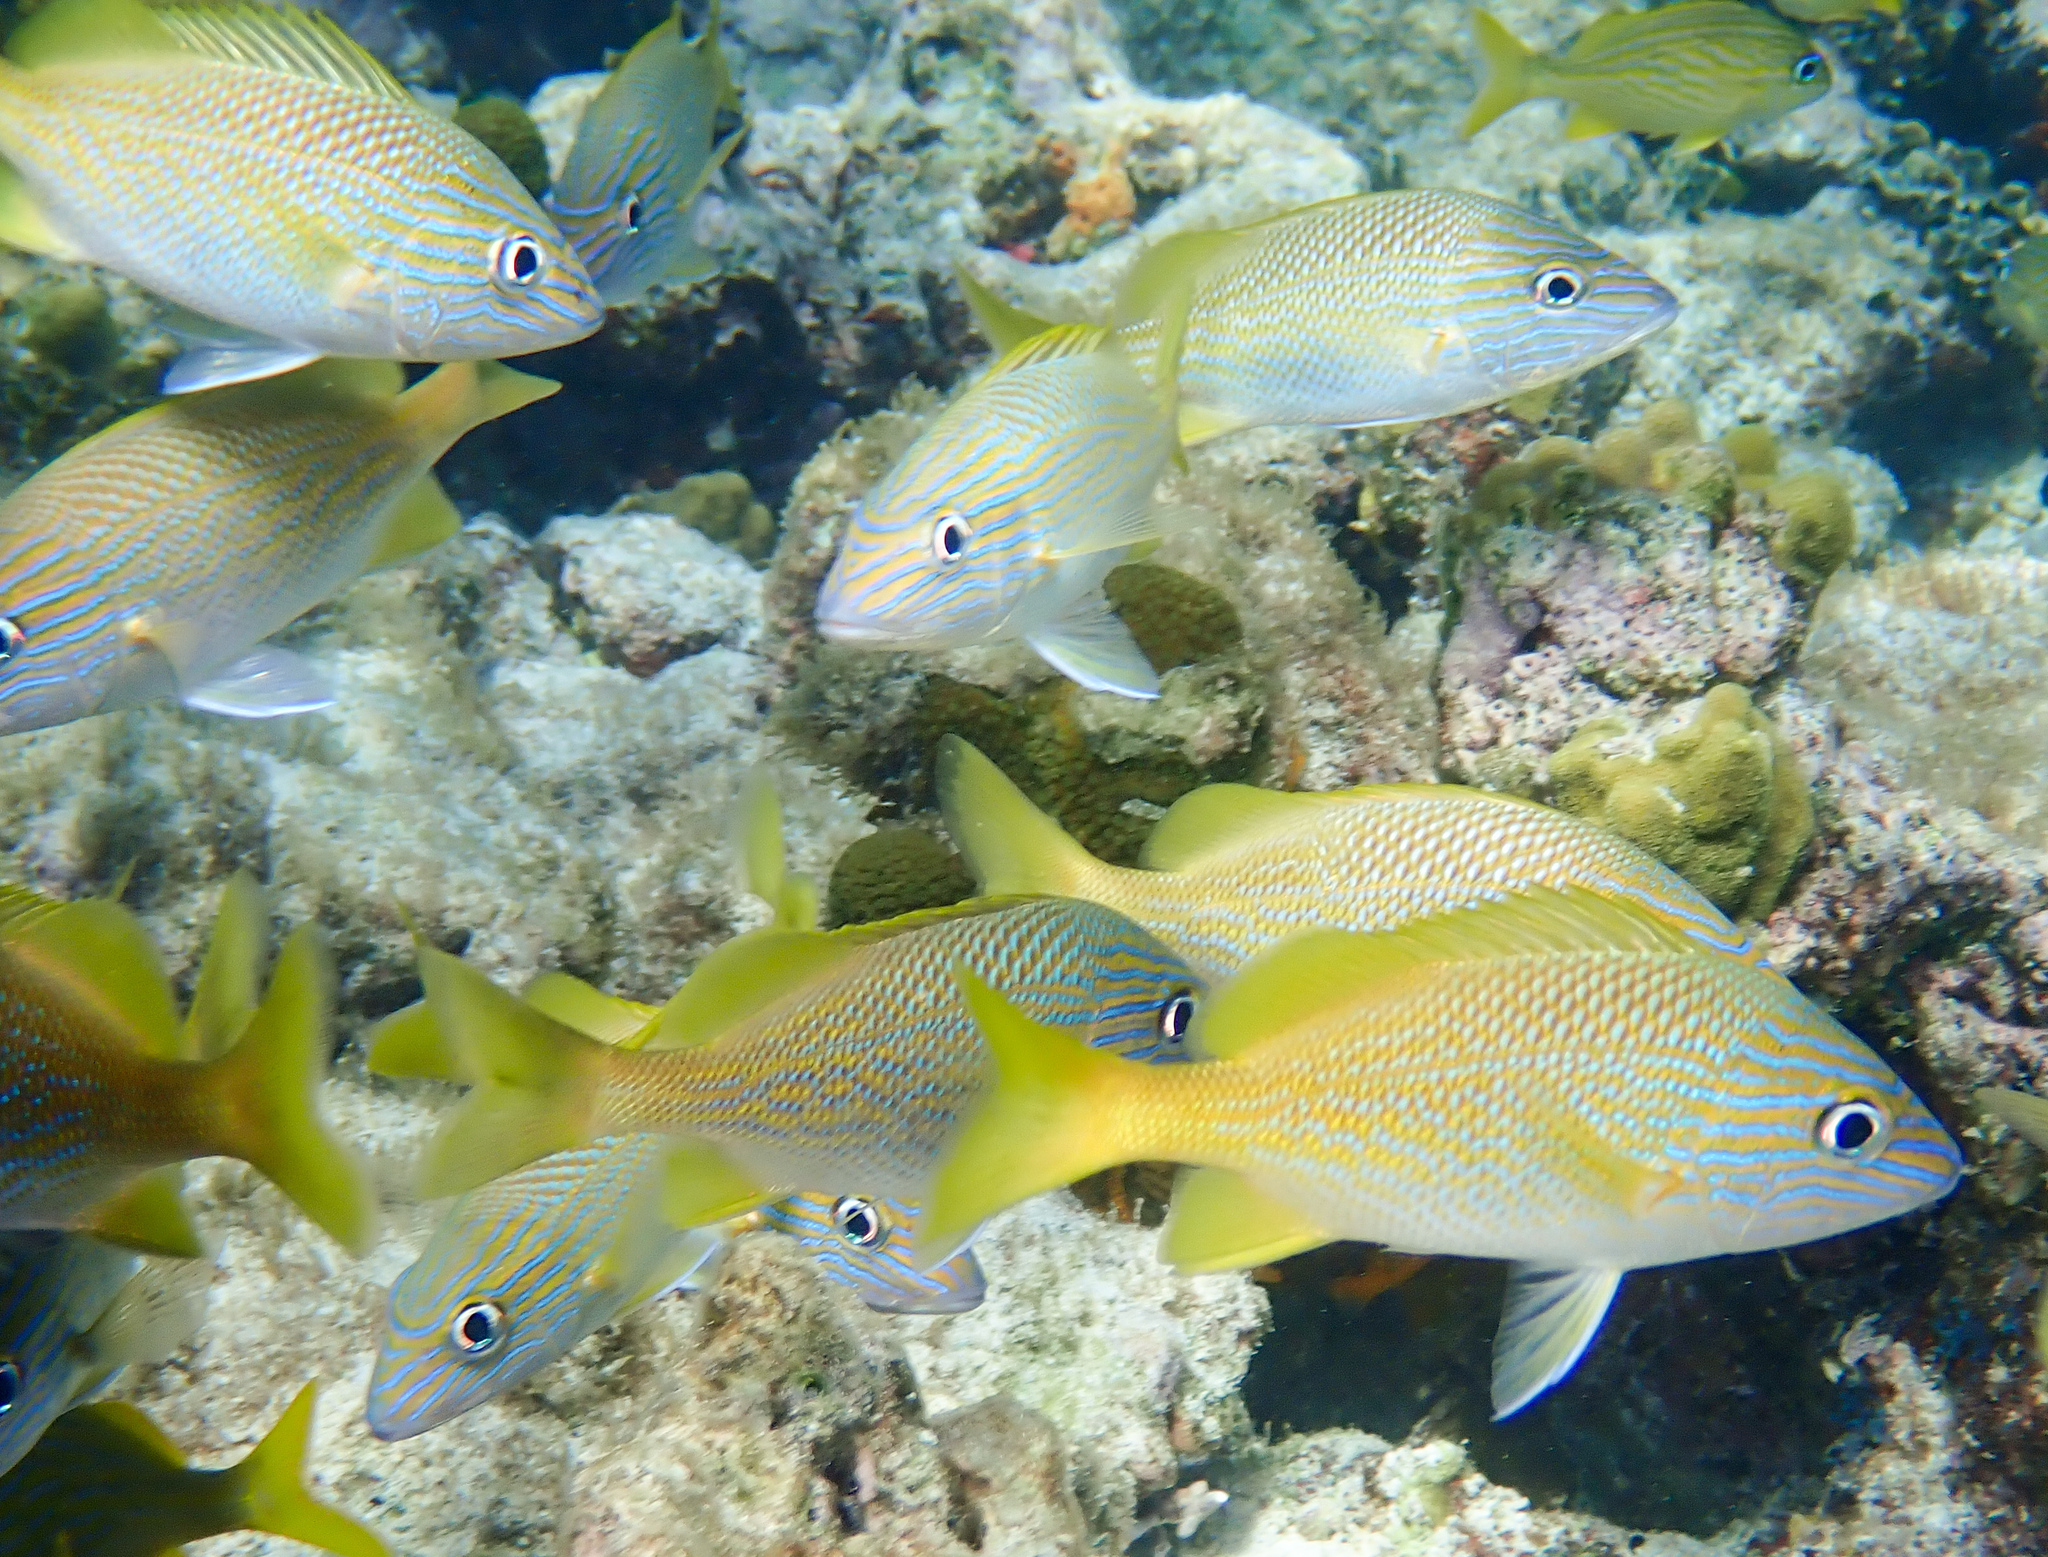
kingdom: Animalia
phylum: Chordata
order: Perciformes
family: Haemulidae
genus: Haemulon
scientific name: Haemulon flavolineatum
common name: French grunt
